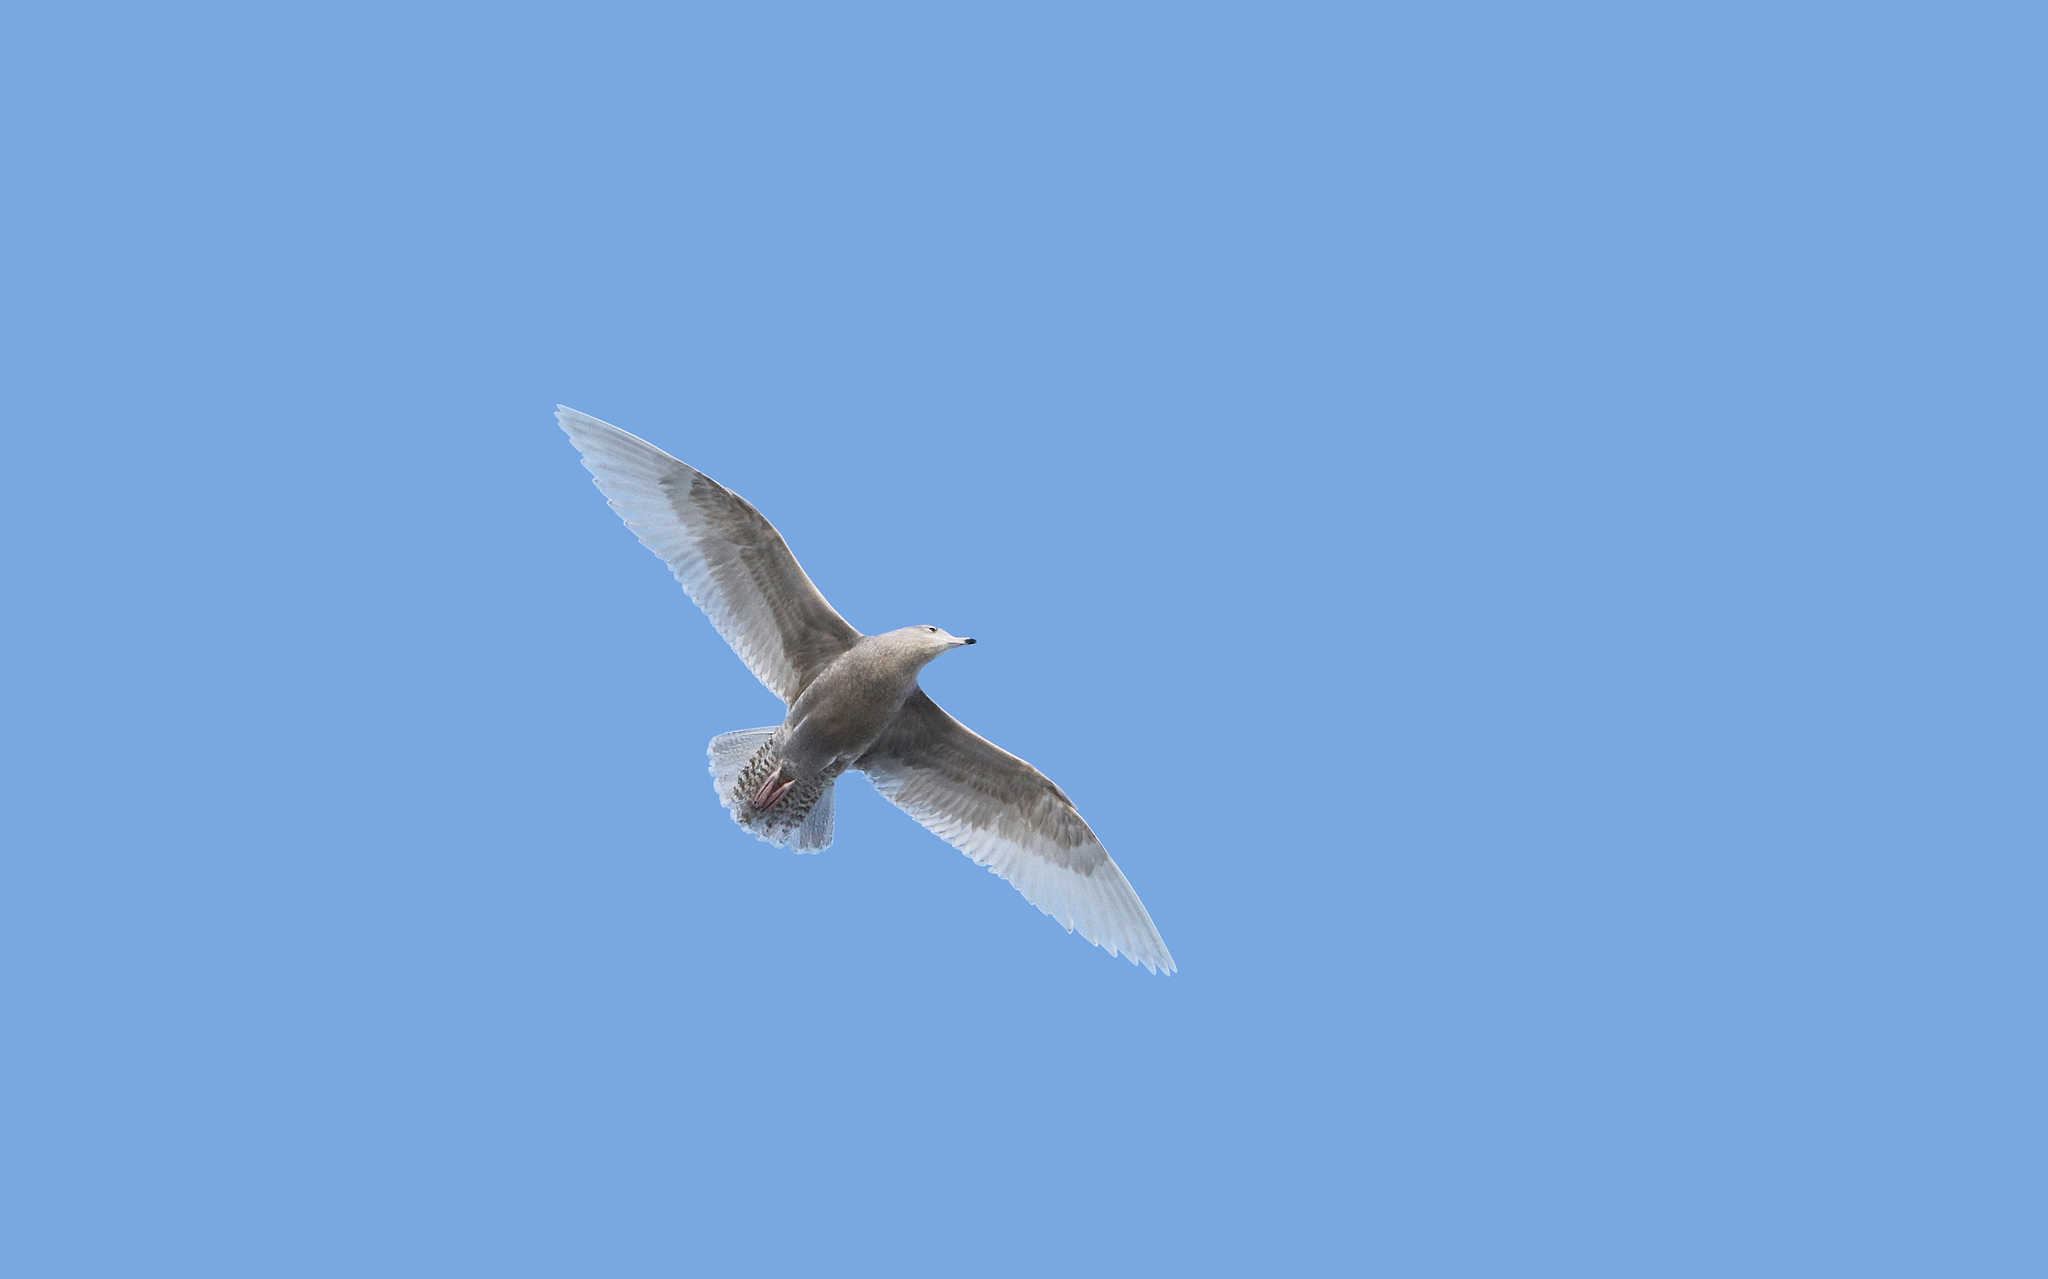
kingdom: Animalia
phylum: Chordata
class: Aves
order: Charadriiformes
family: Laridae
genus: Larus
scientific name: Larus hyperboreus
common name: Glaucous gull
